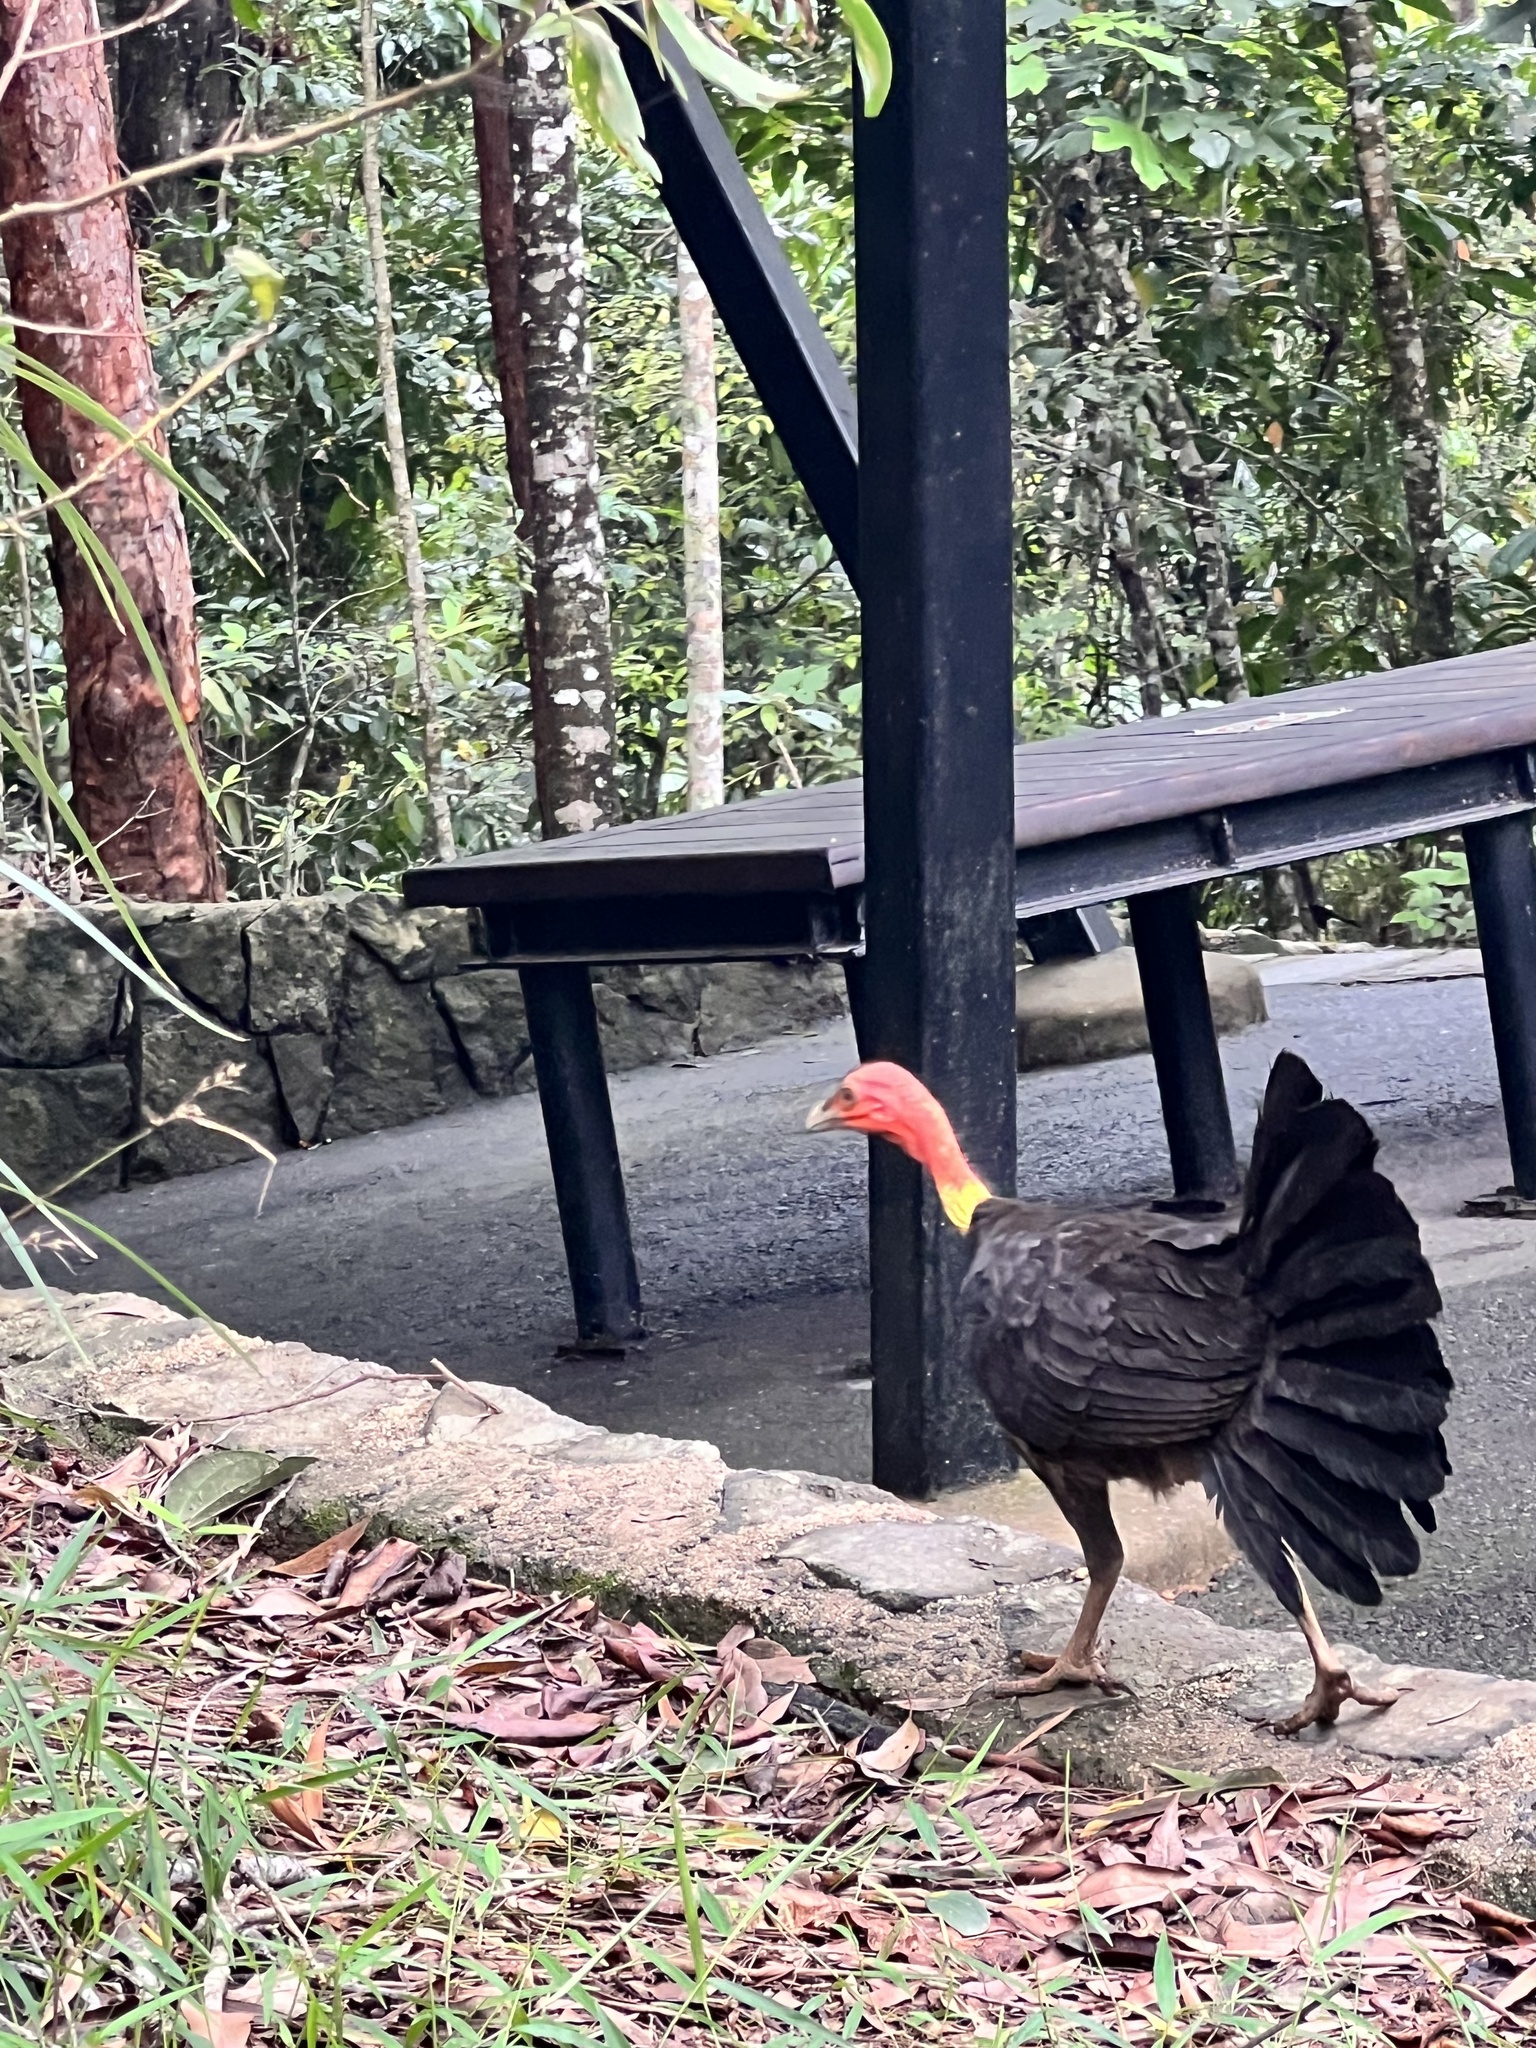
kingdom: Animalia
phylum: Chordata
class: Aves
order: Galliformes
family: Megapodiidae
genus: Alectura
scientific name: Alectura lathami
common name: Australian brushturkey
